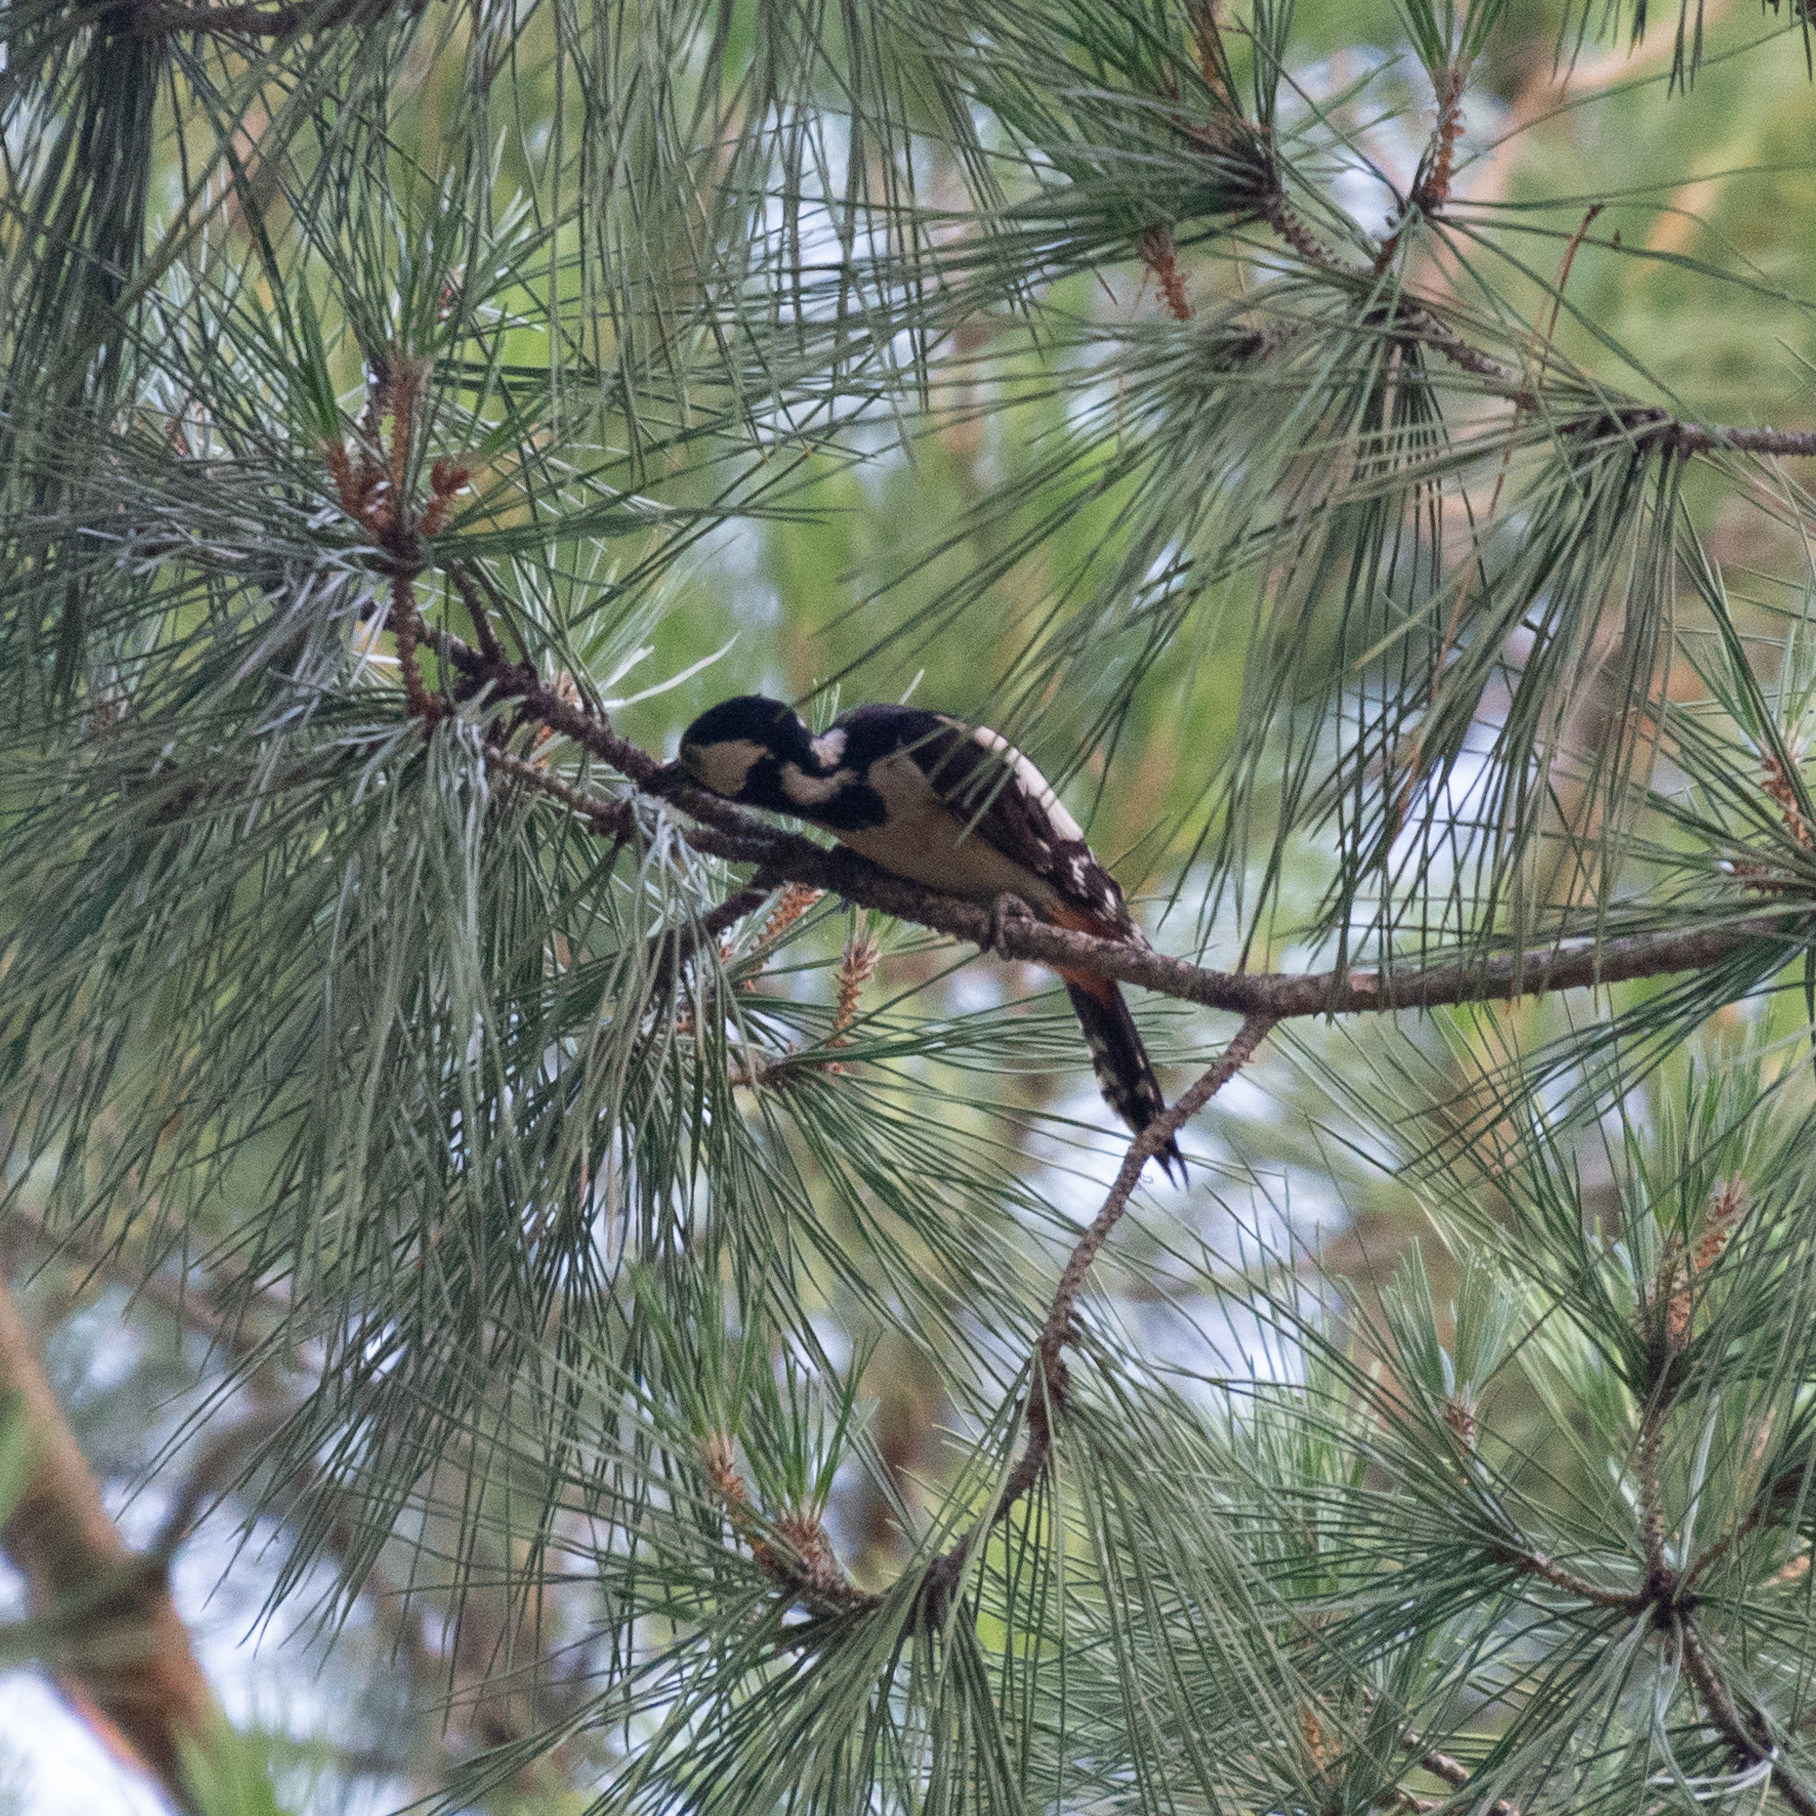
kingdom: Animalia
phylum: Chordata
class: Aves
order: Piciformes
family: Picidae
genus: Dendrocopos
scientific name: Dendrocopos major
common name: Great spotted woodpecker
